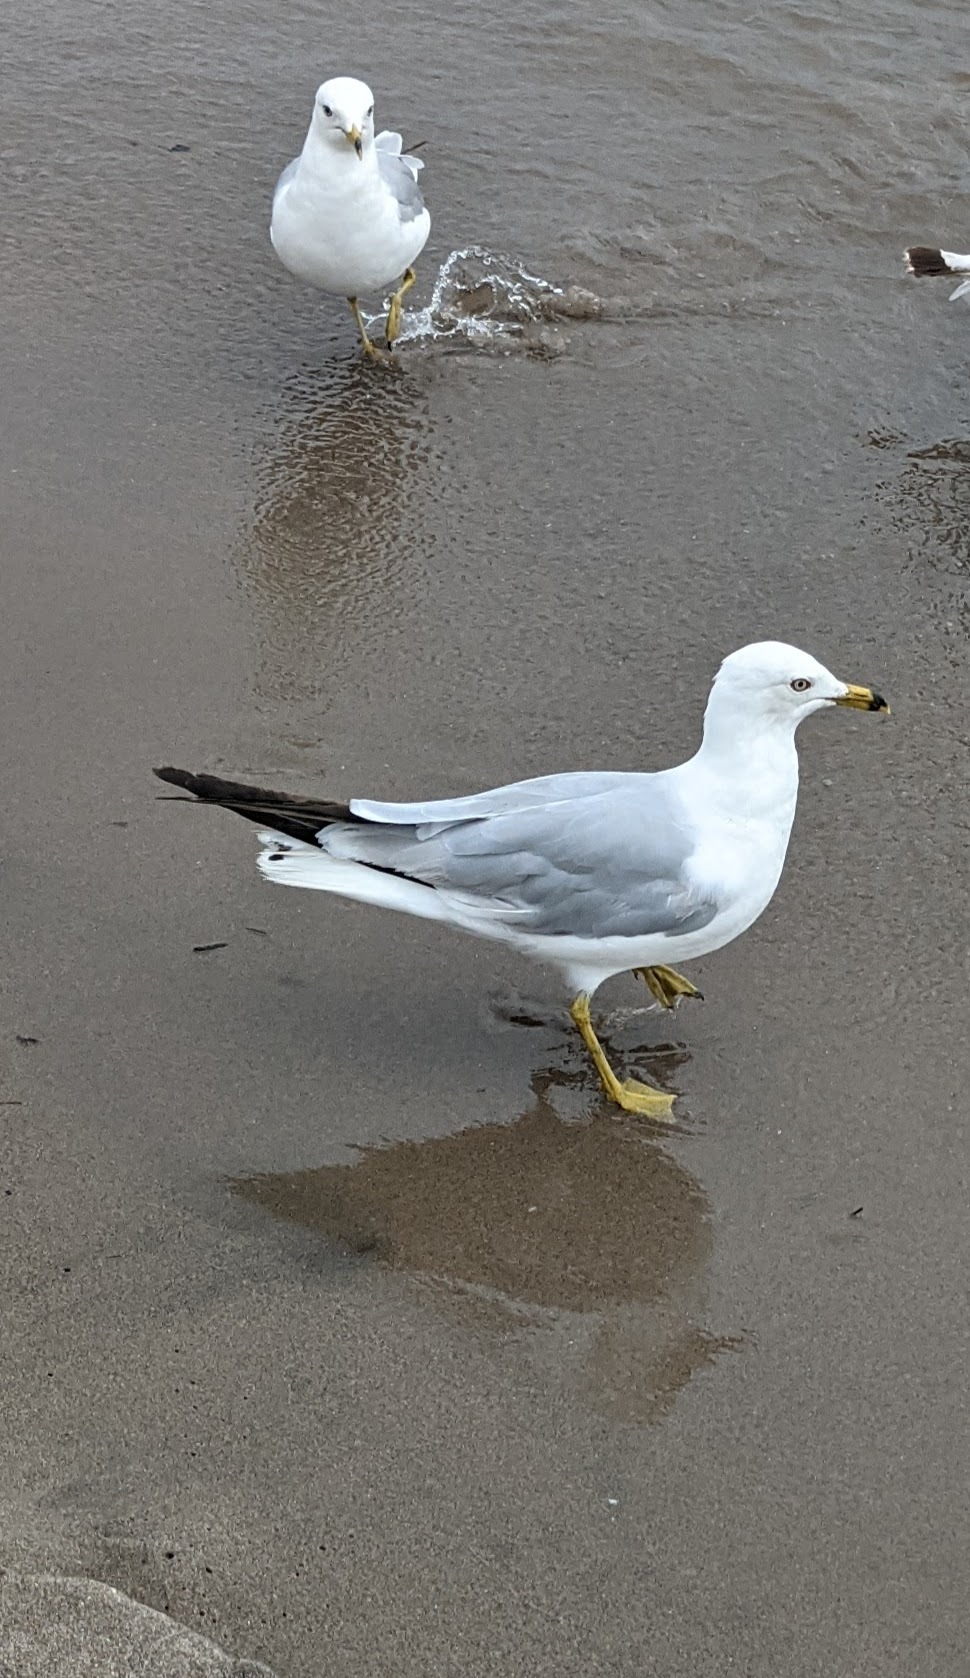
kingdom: Animalia
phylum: Chordata
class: Aves
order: Charadriiformes
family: Laridae
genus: Larus
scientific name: Larus delawarensis
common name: Ring-billed gull
